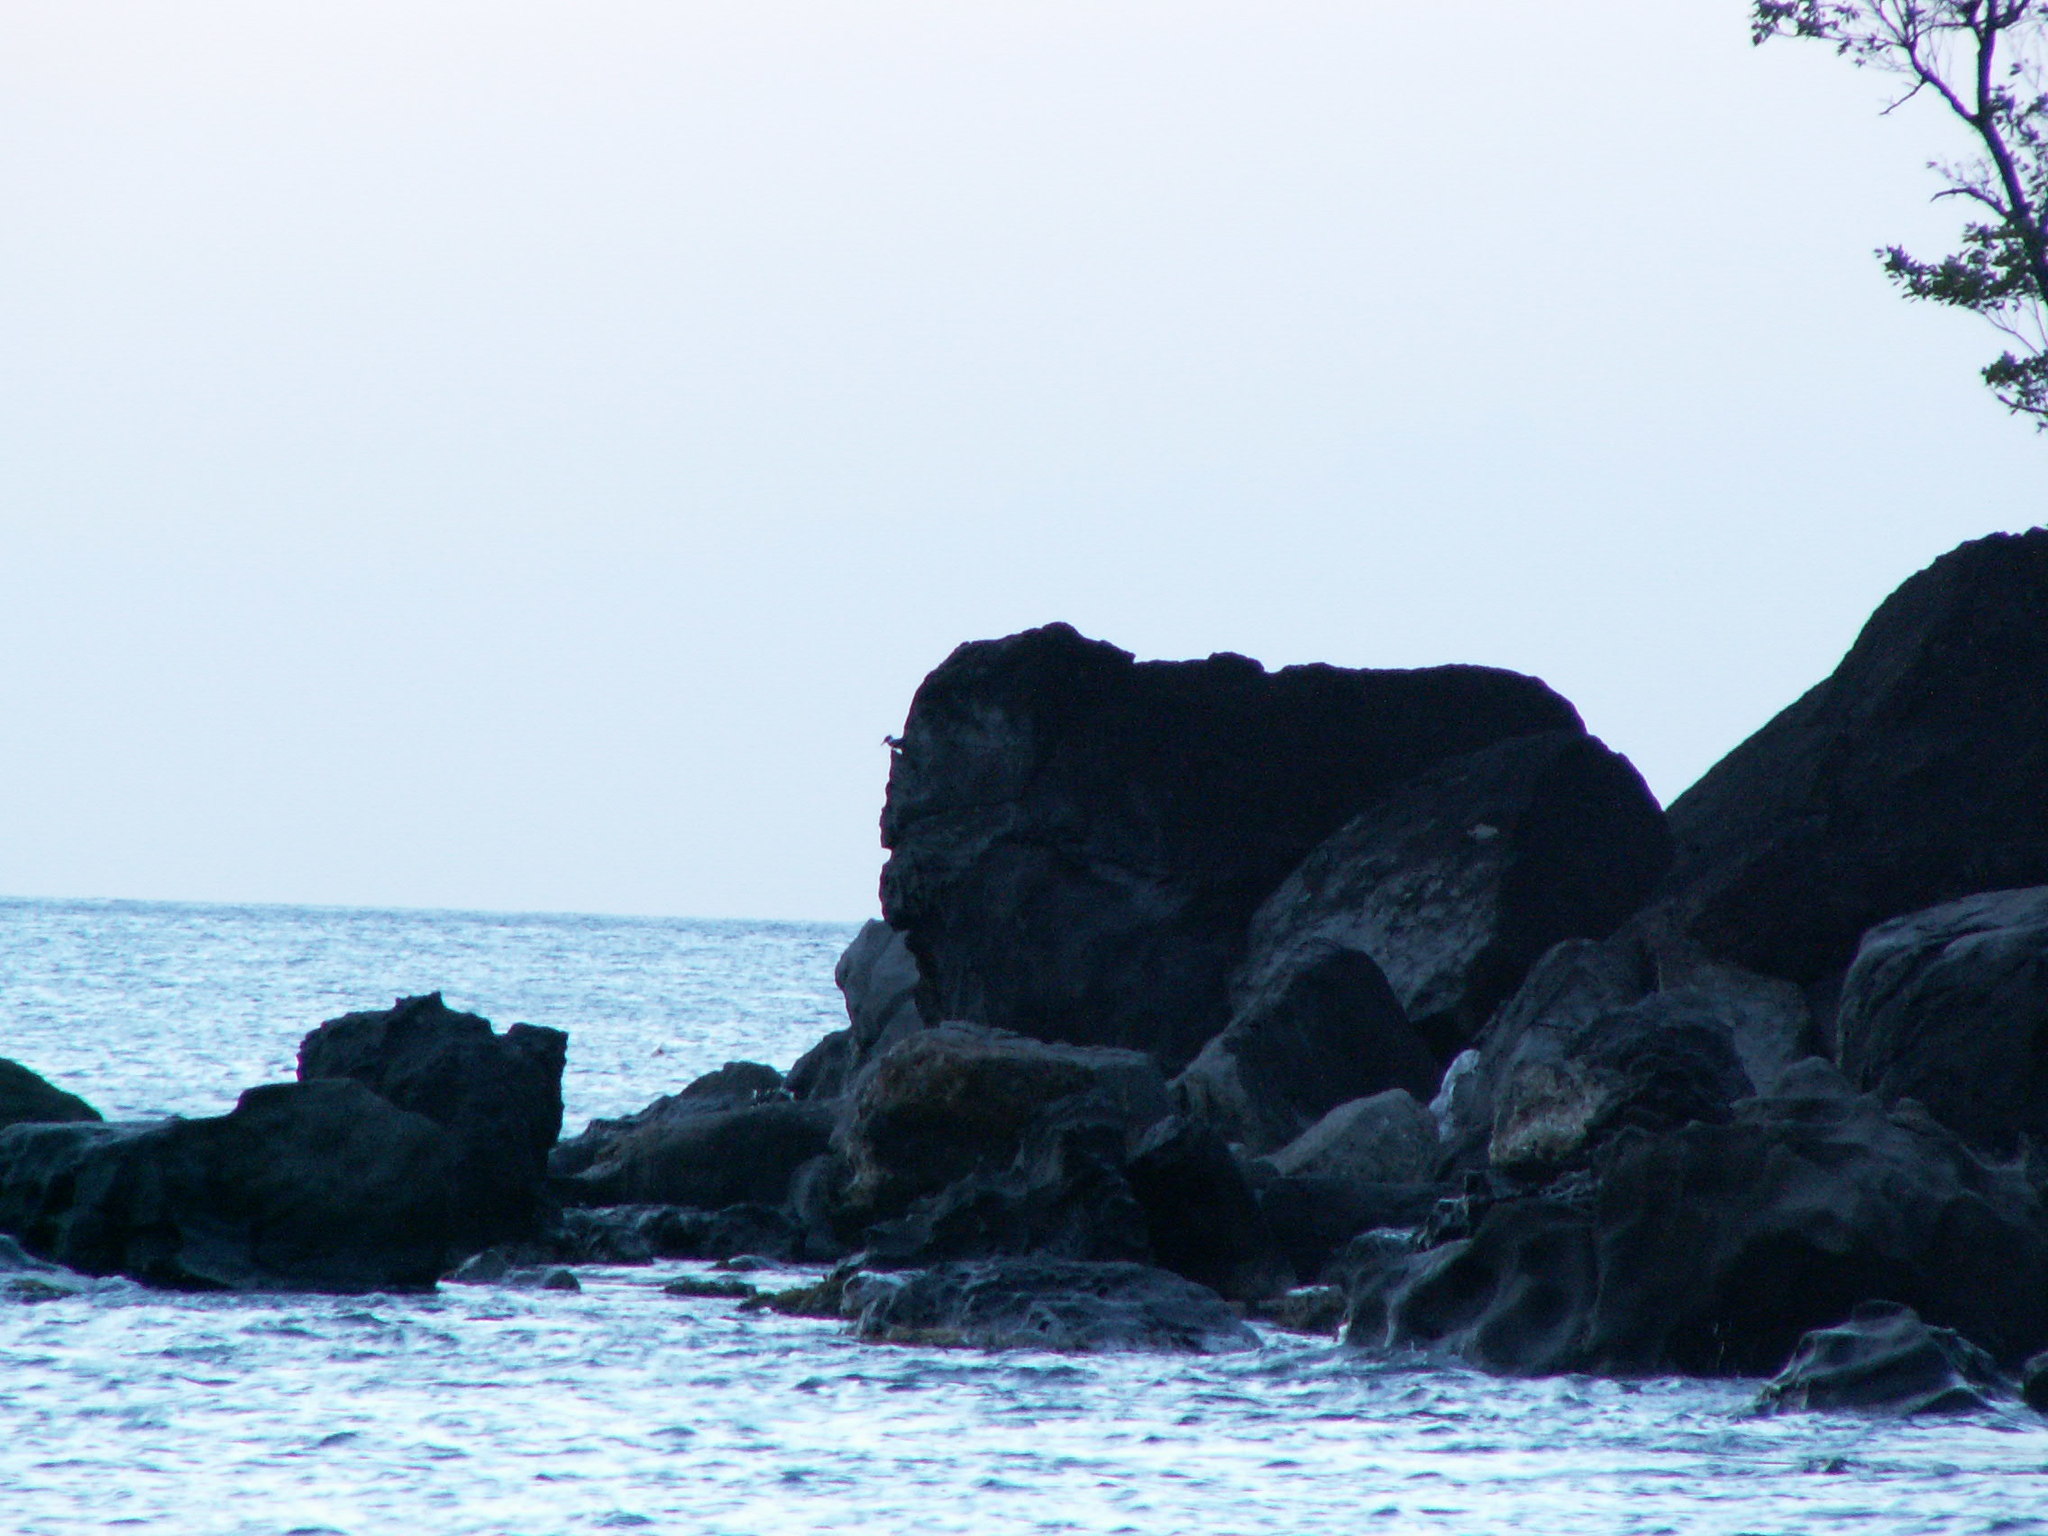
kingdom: Animalia
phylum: Chordata
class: Aves
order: Coraciiformes
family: Alcedinidae
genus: Megaceryle
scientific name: Megaceryle alcyon
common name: Belted kingfisher
